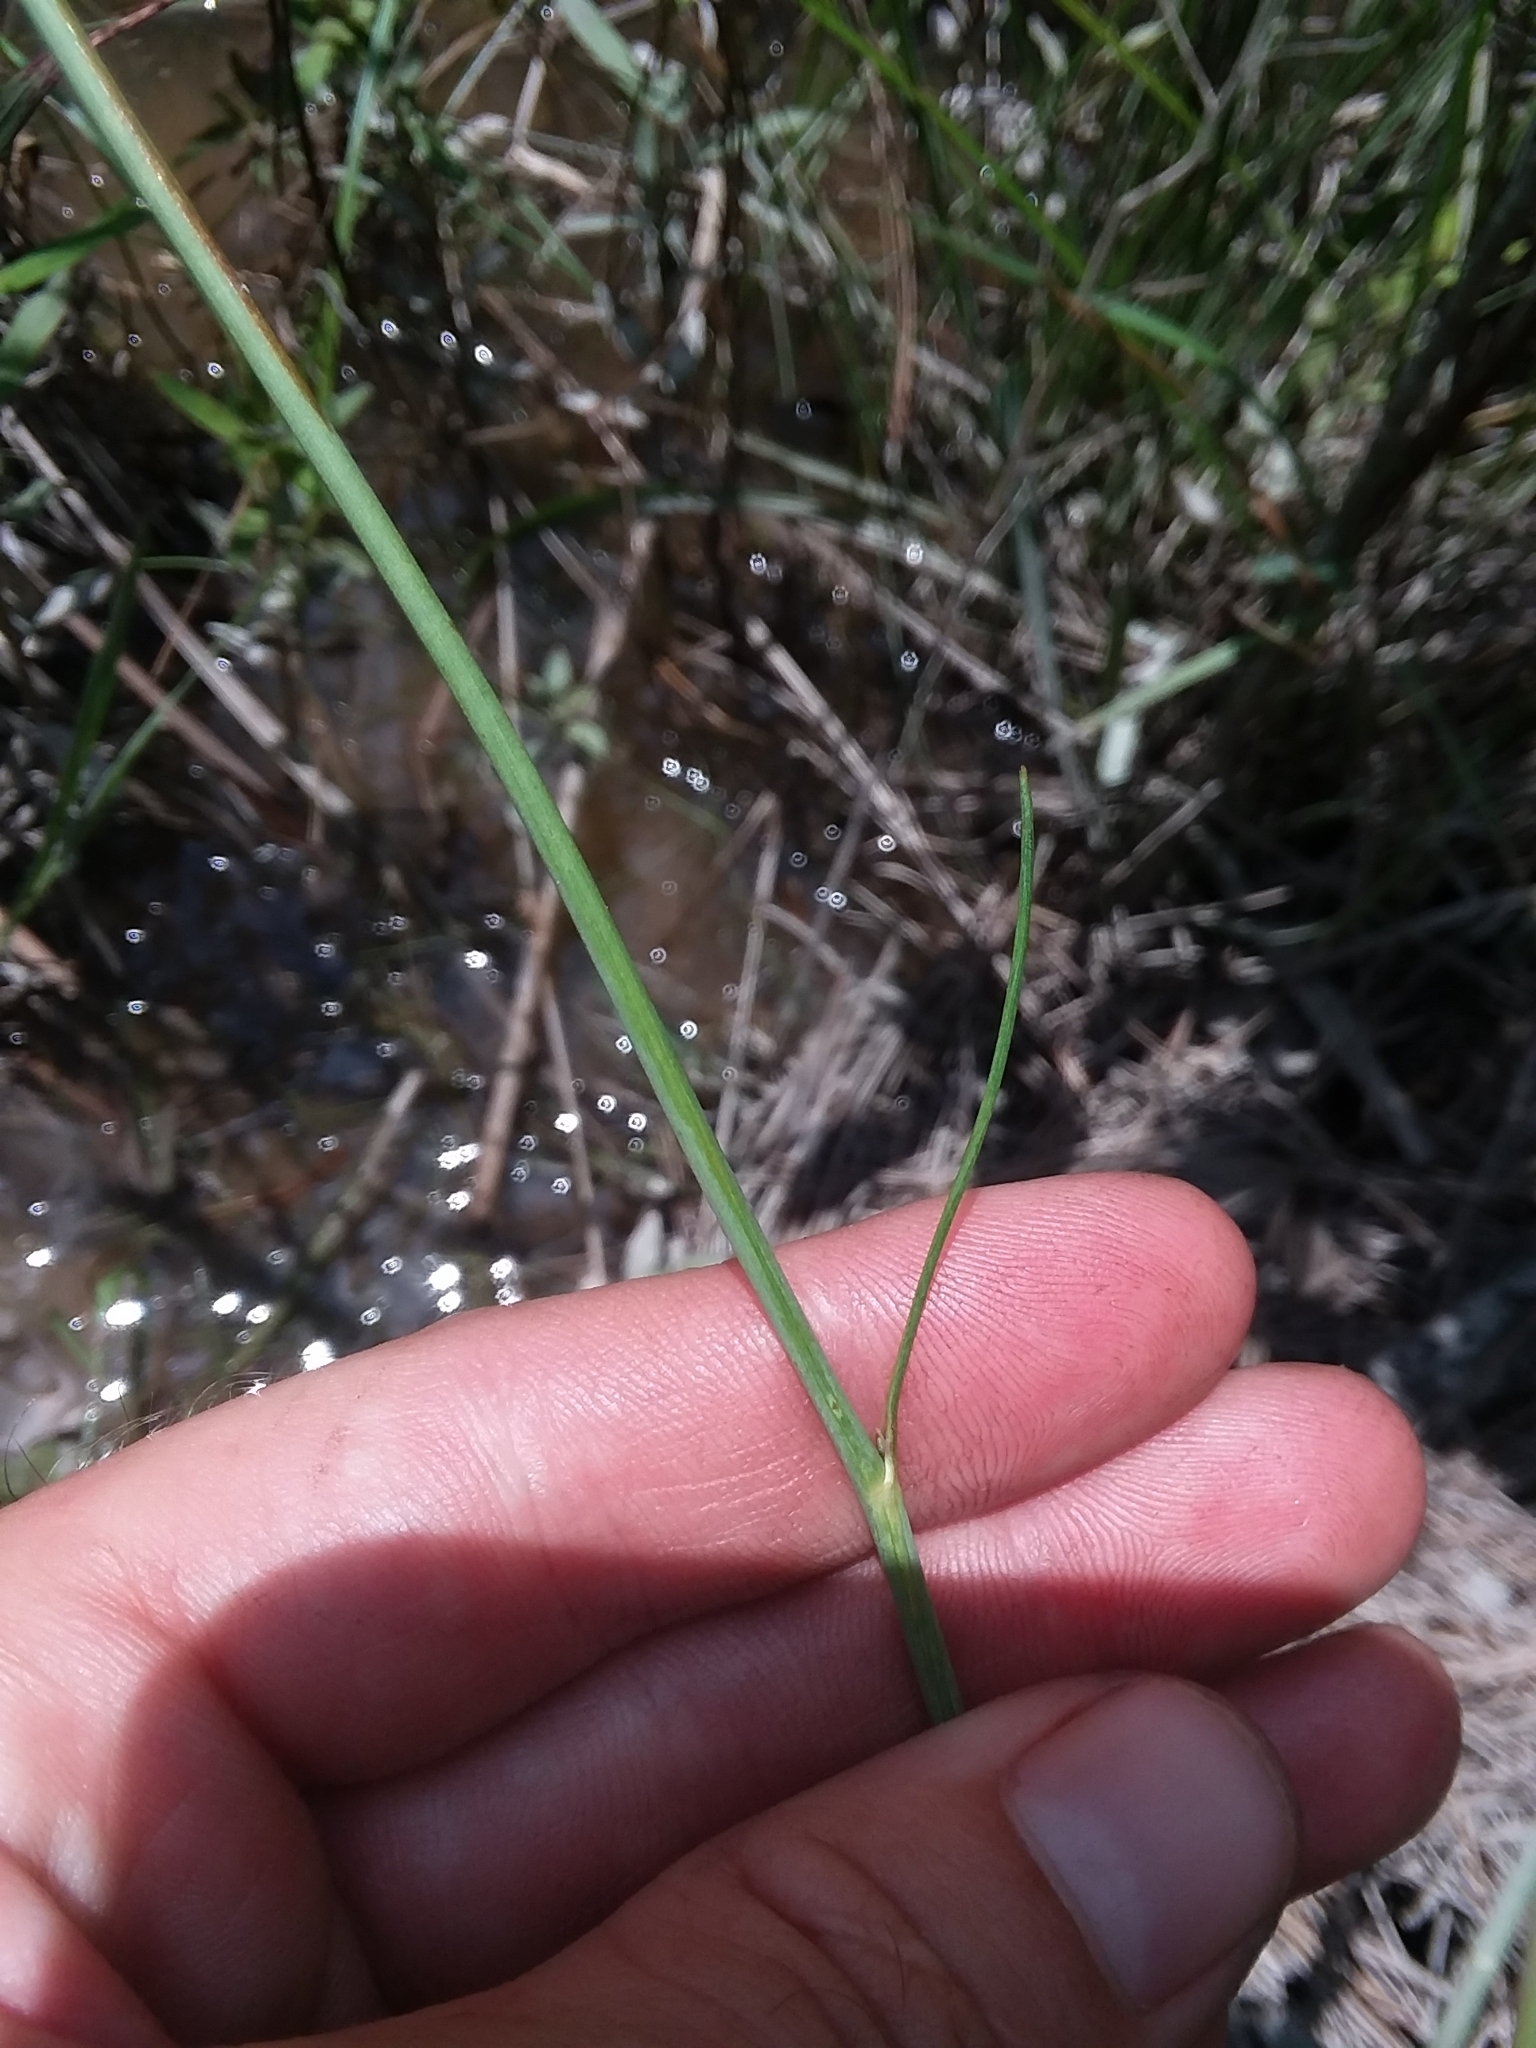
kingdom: Plantae
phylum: Tracheophyta
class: Magnoliopsida
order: Asterales
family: Asteraceae
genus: Coreopsis
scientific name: Coreopsis nudata
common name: Purple tickseed
